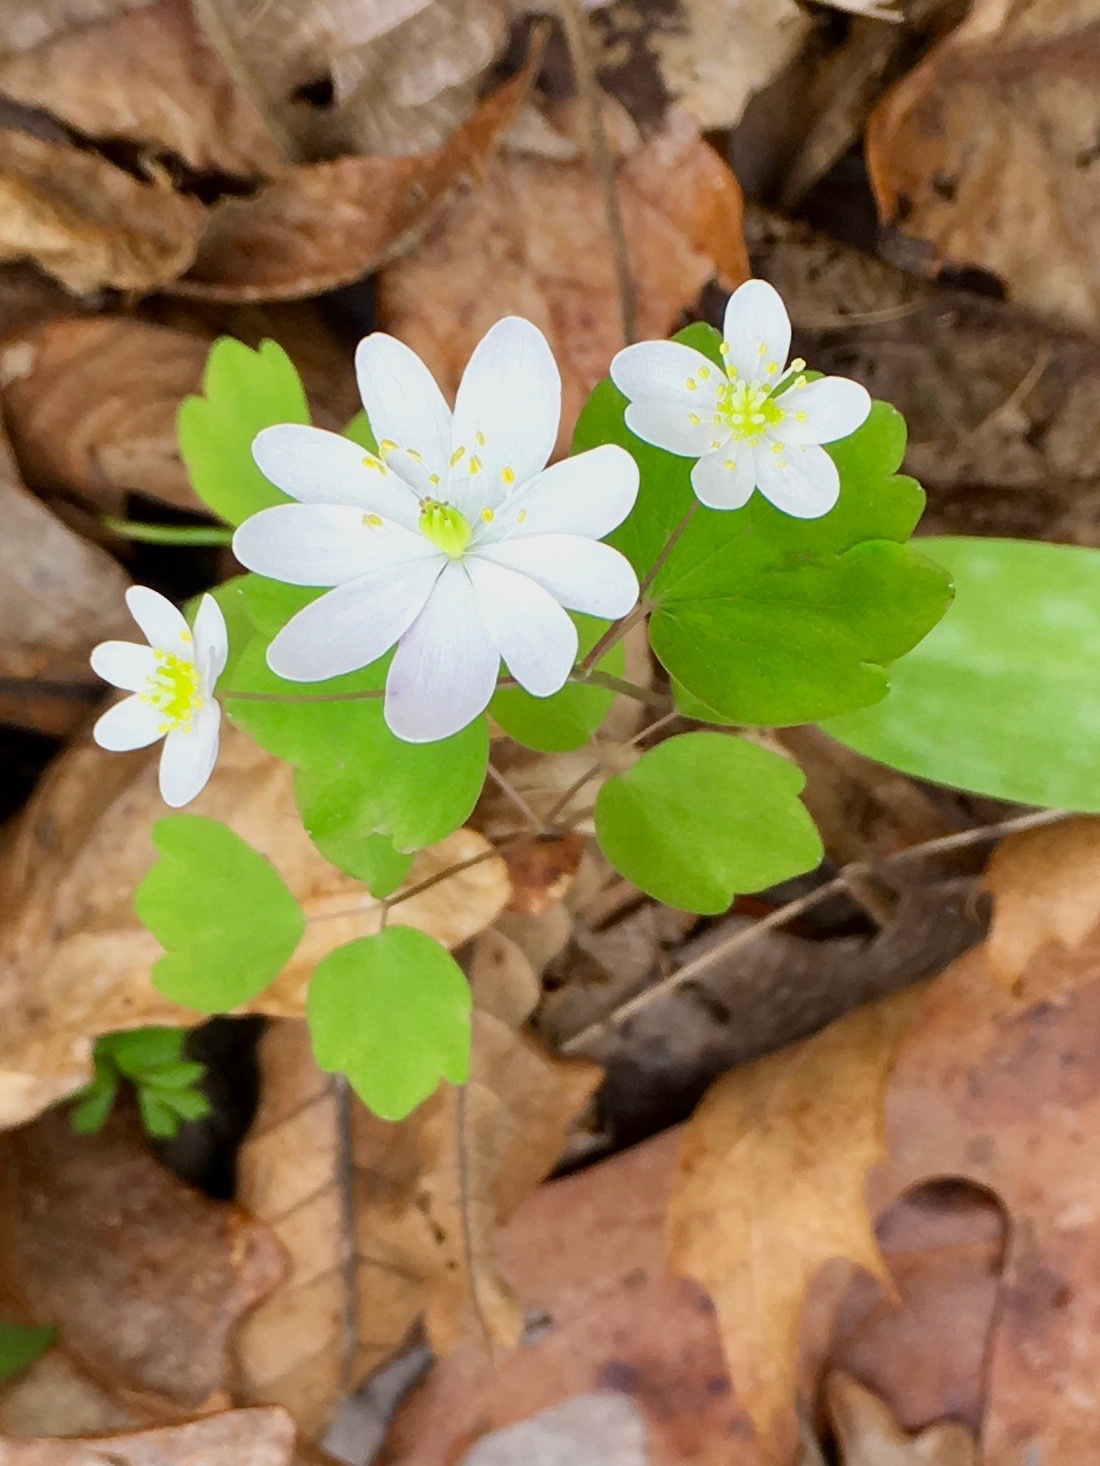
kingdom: Plantae
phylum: Tracheophyta
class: Magnoliopsida
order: Ranunculales
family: Ranunculaceae
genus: Thalictrum
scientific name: Thalictrum thalictroides
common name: Rue-anemone
